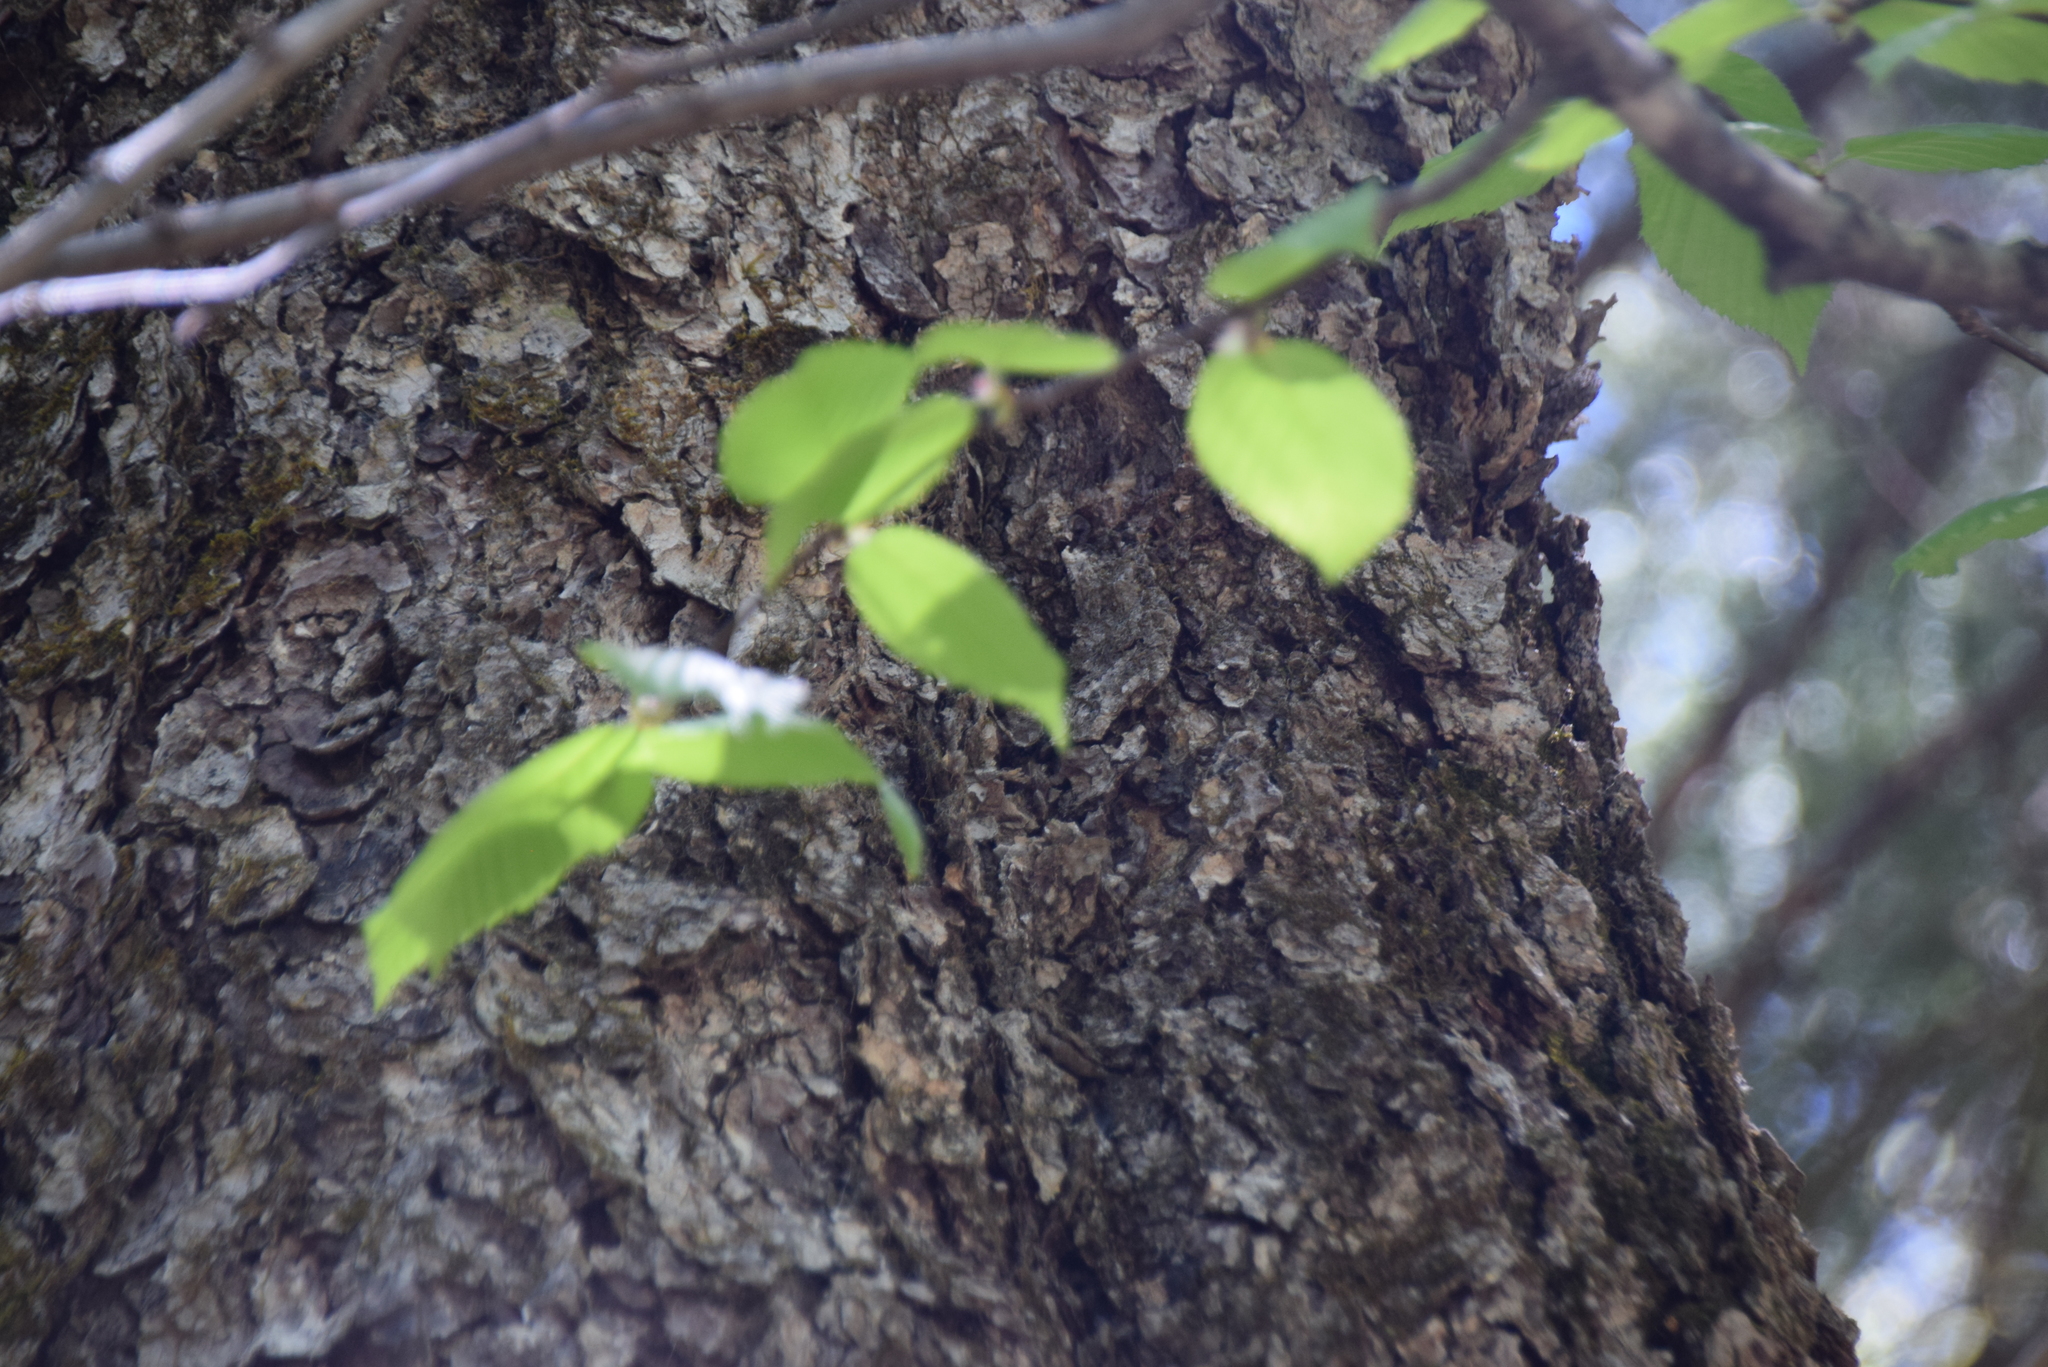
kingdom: Plantae
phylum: Tracheophyta
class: Magnoliopsida
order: Fagales
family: Betulaceae
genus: Betula
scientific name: Betula alleghaniensis
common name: Yellow birch
